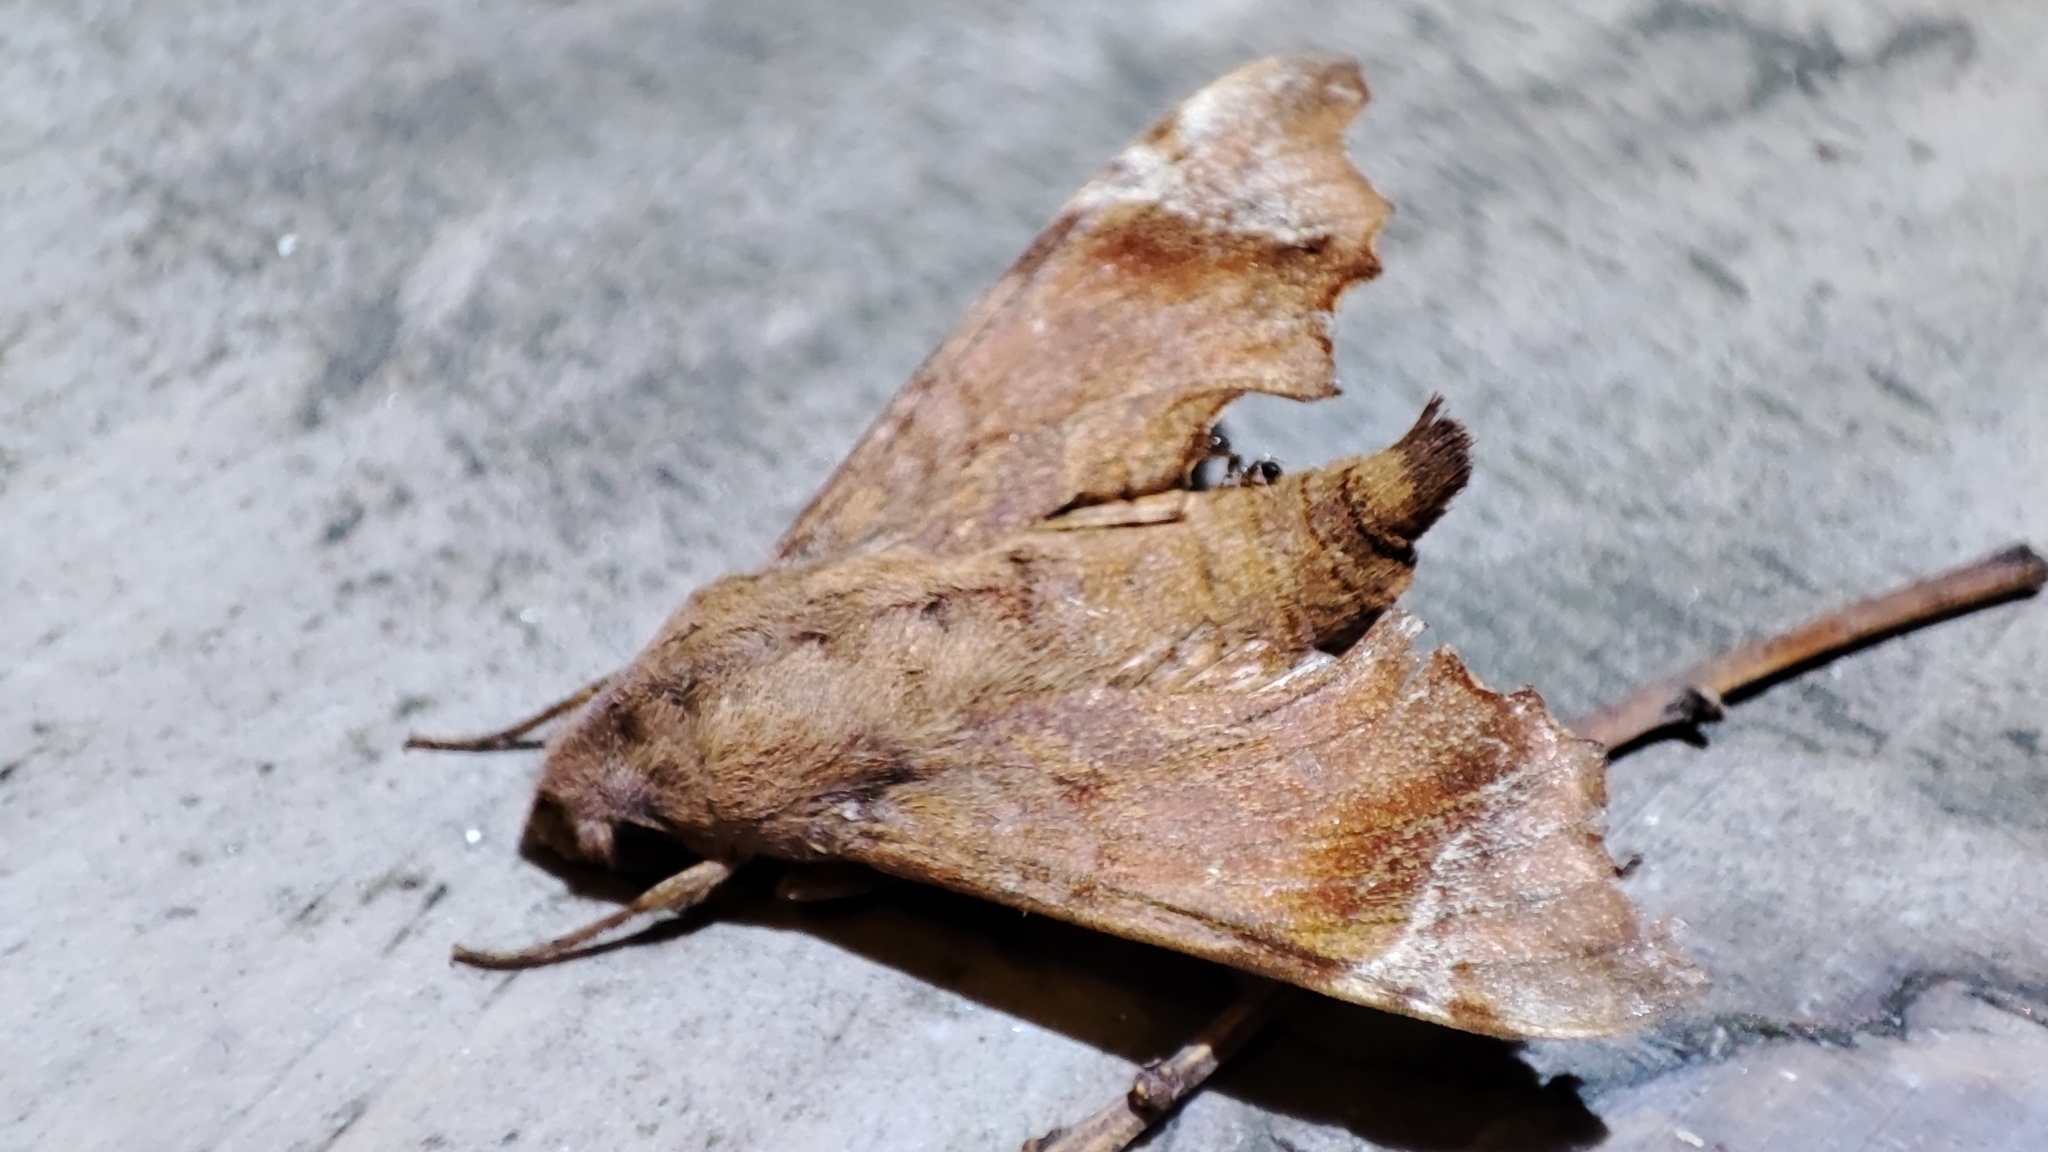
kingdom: Animalia
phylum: Arthropoda
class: Insecta
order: Lepidoptera
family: Sphingidae
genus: Temnora
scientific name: Temnora pylas
